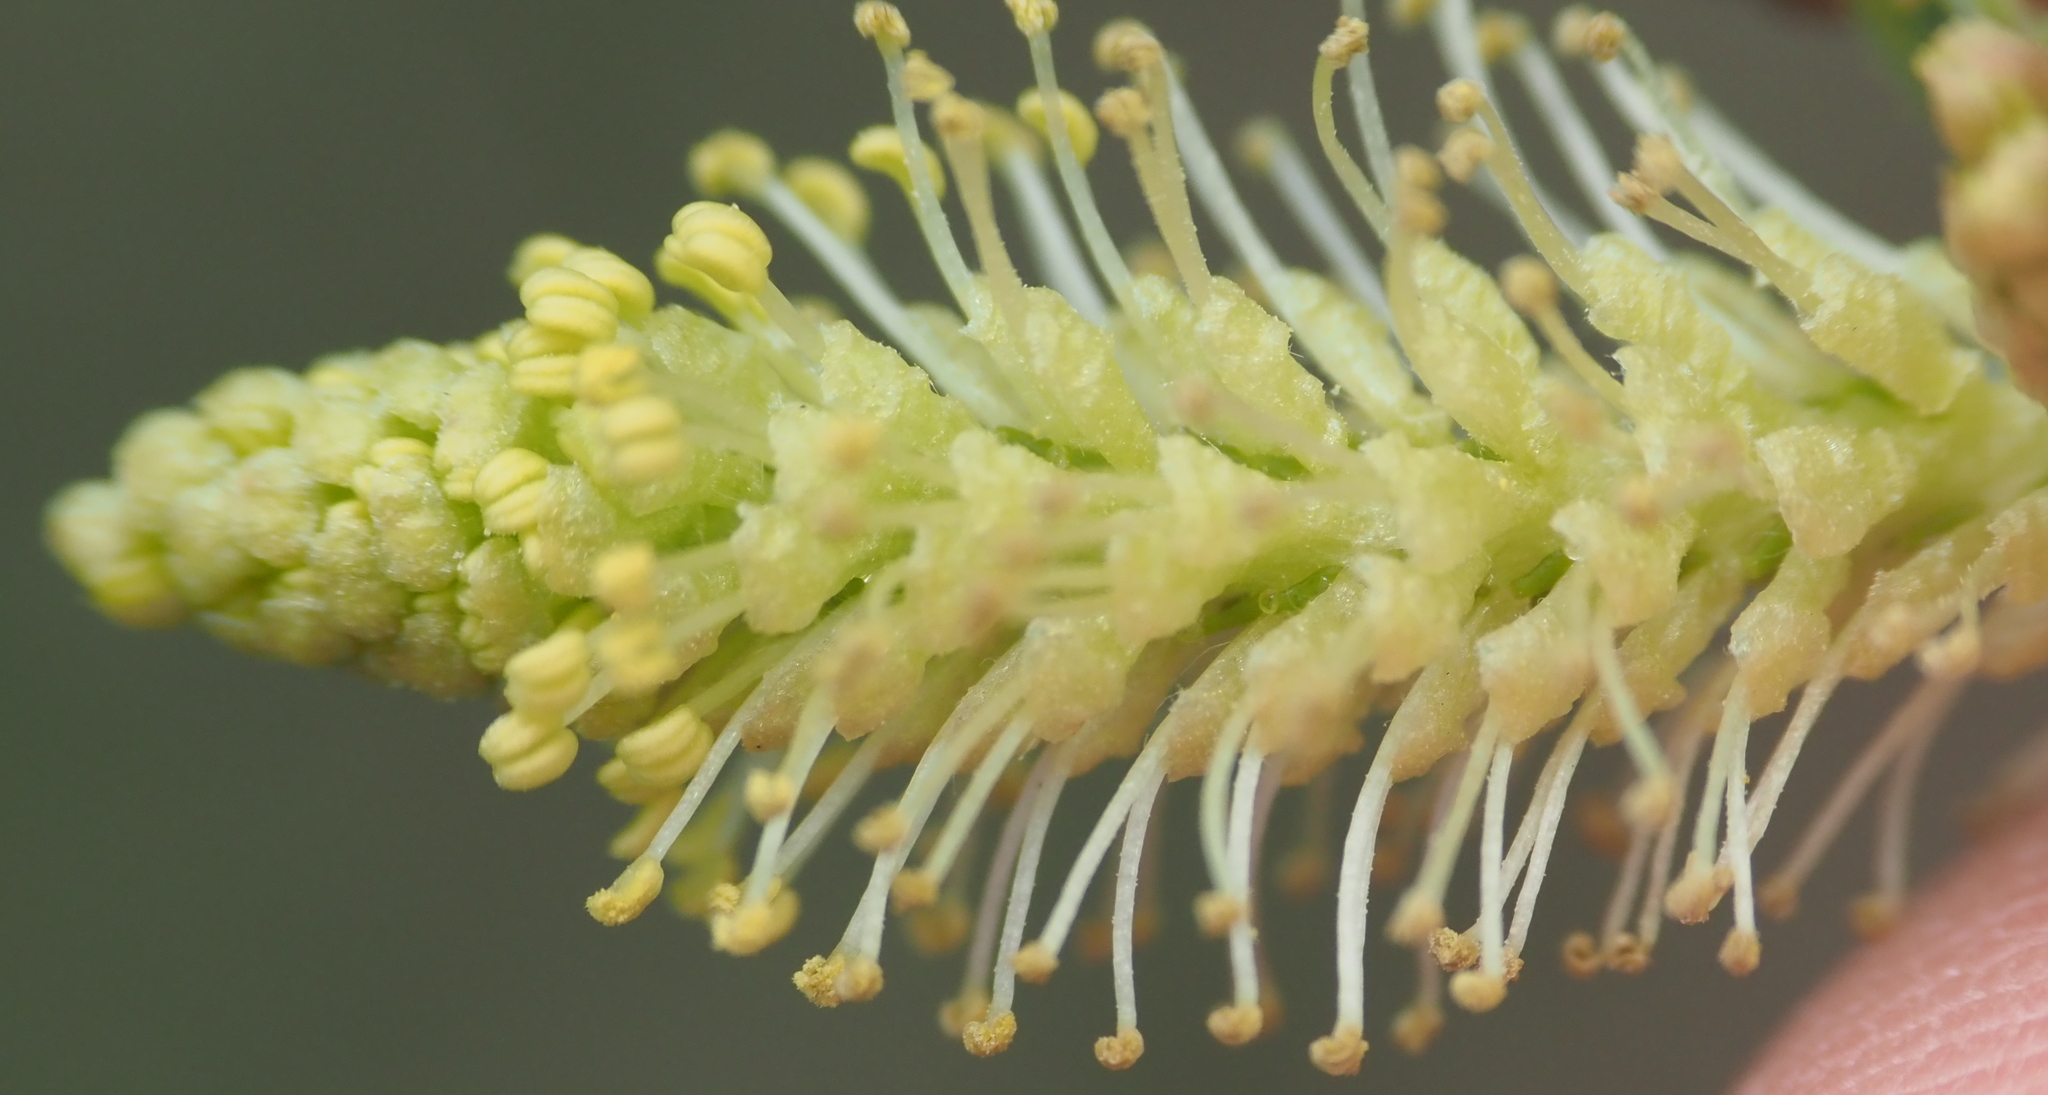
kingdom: Plantae
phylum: Tracheophyta
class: Magnoliopsida
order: Malpighiales
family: Salicaceae
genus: Salix
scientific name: Salix interior
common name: Sandbar willow
